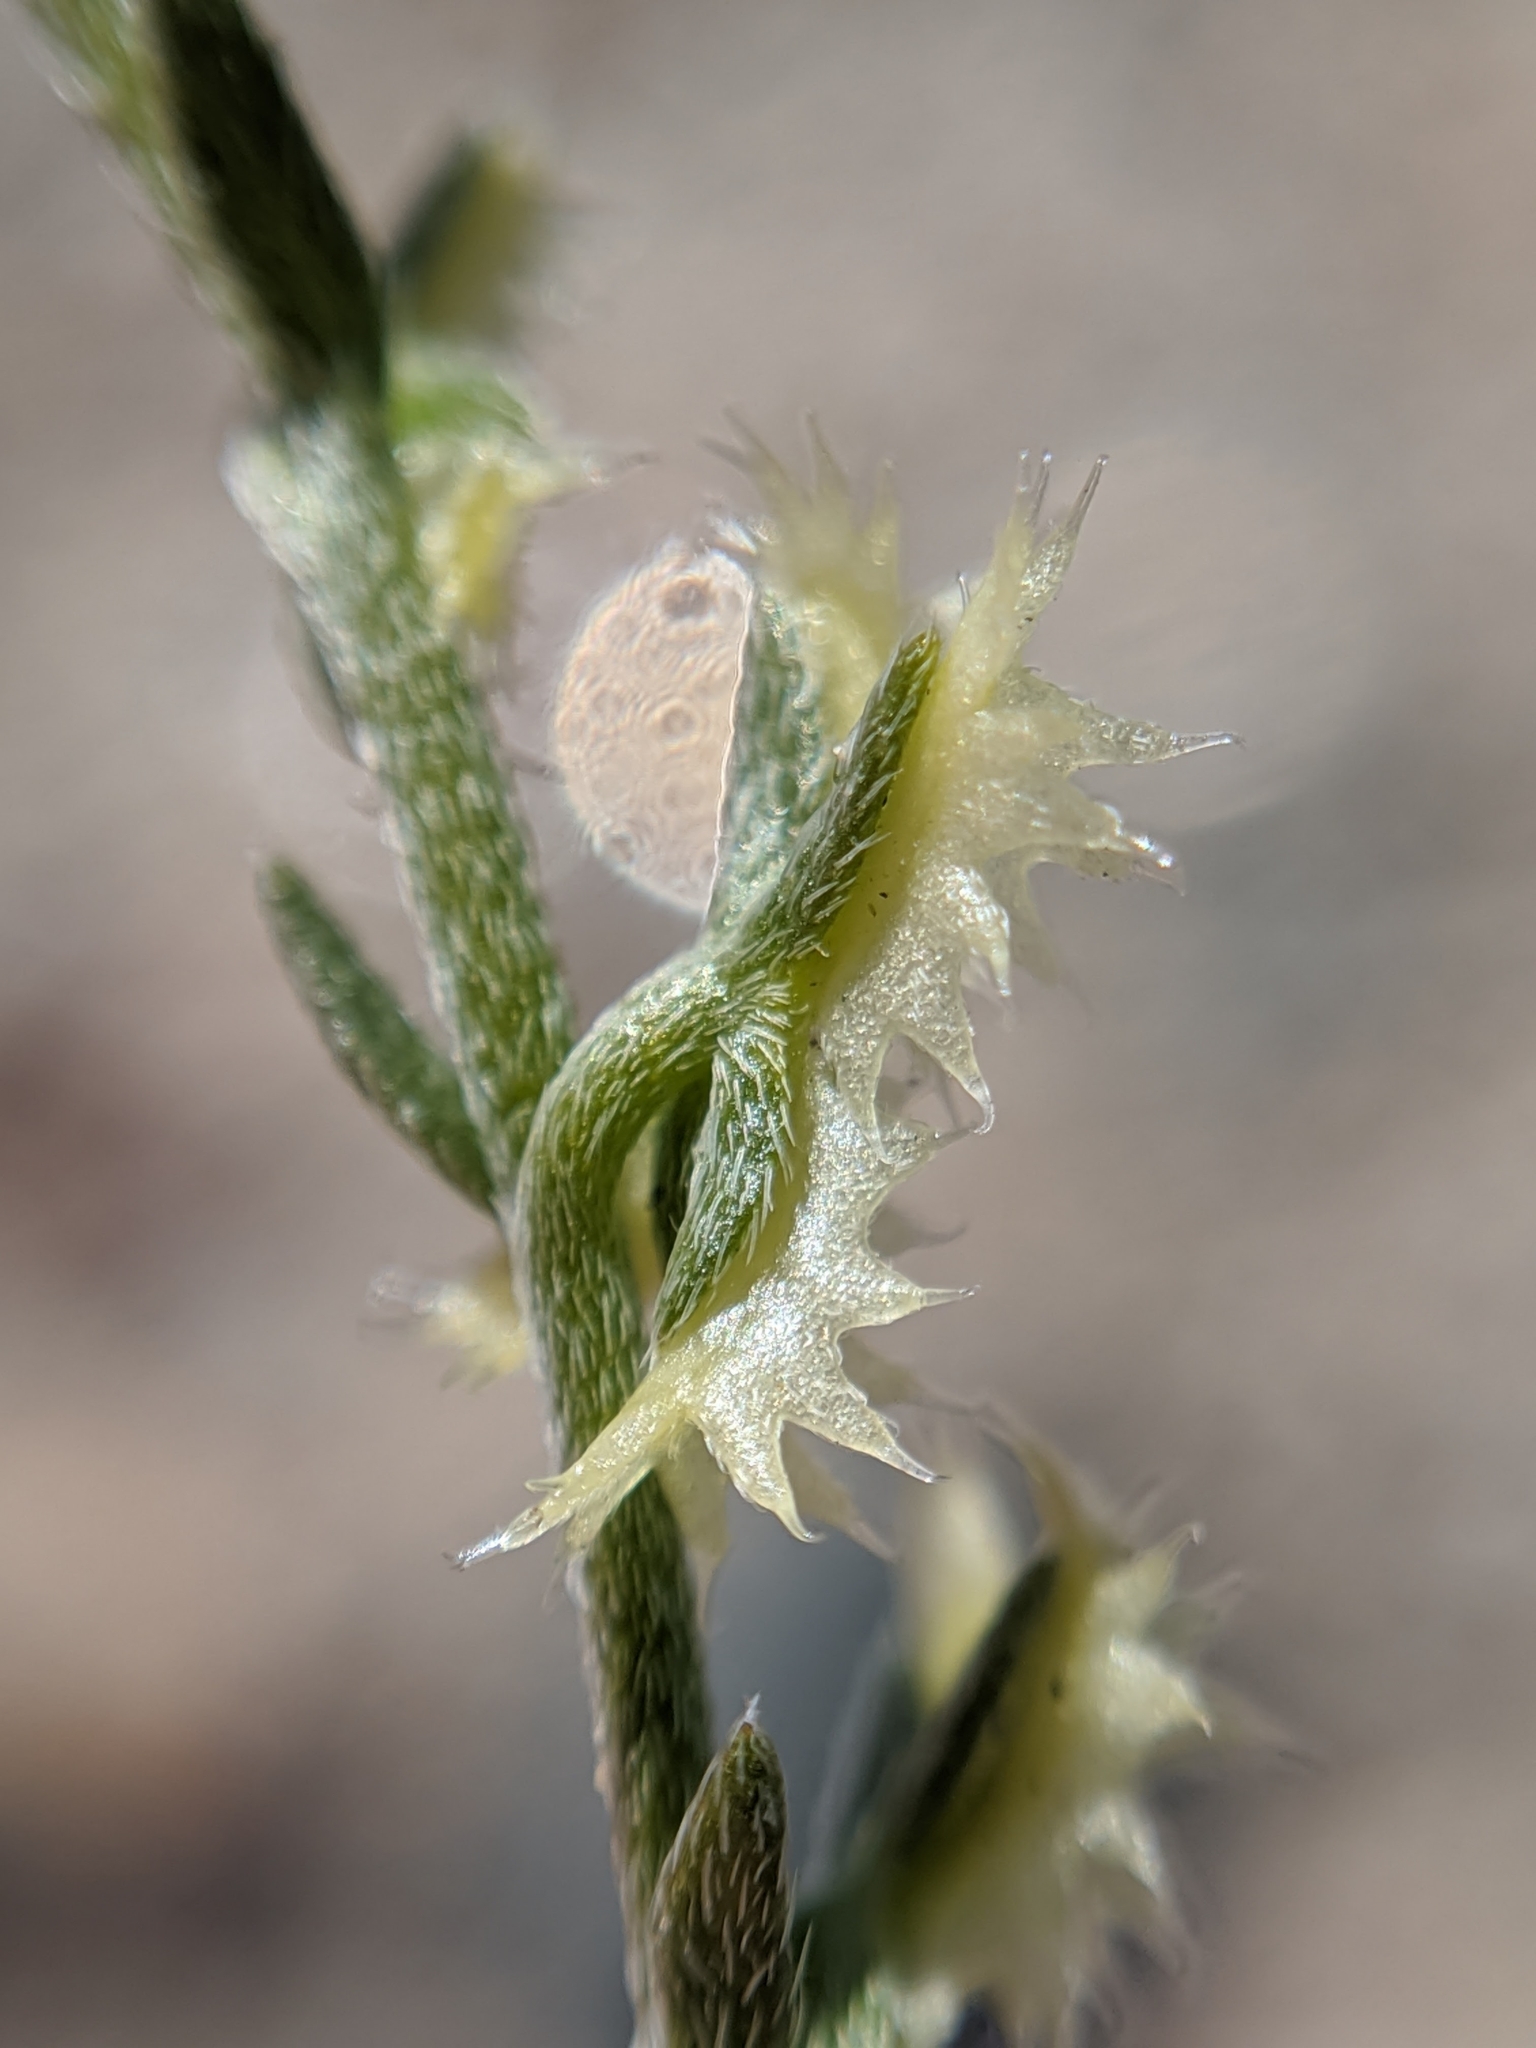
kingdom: Plantae
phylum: Tracheophyta
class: Magnoliopsida
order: Boraginales
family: Boraginaceae
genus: Pectocarya
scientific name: Pectocarya platycarpa
